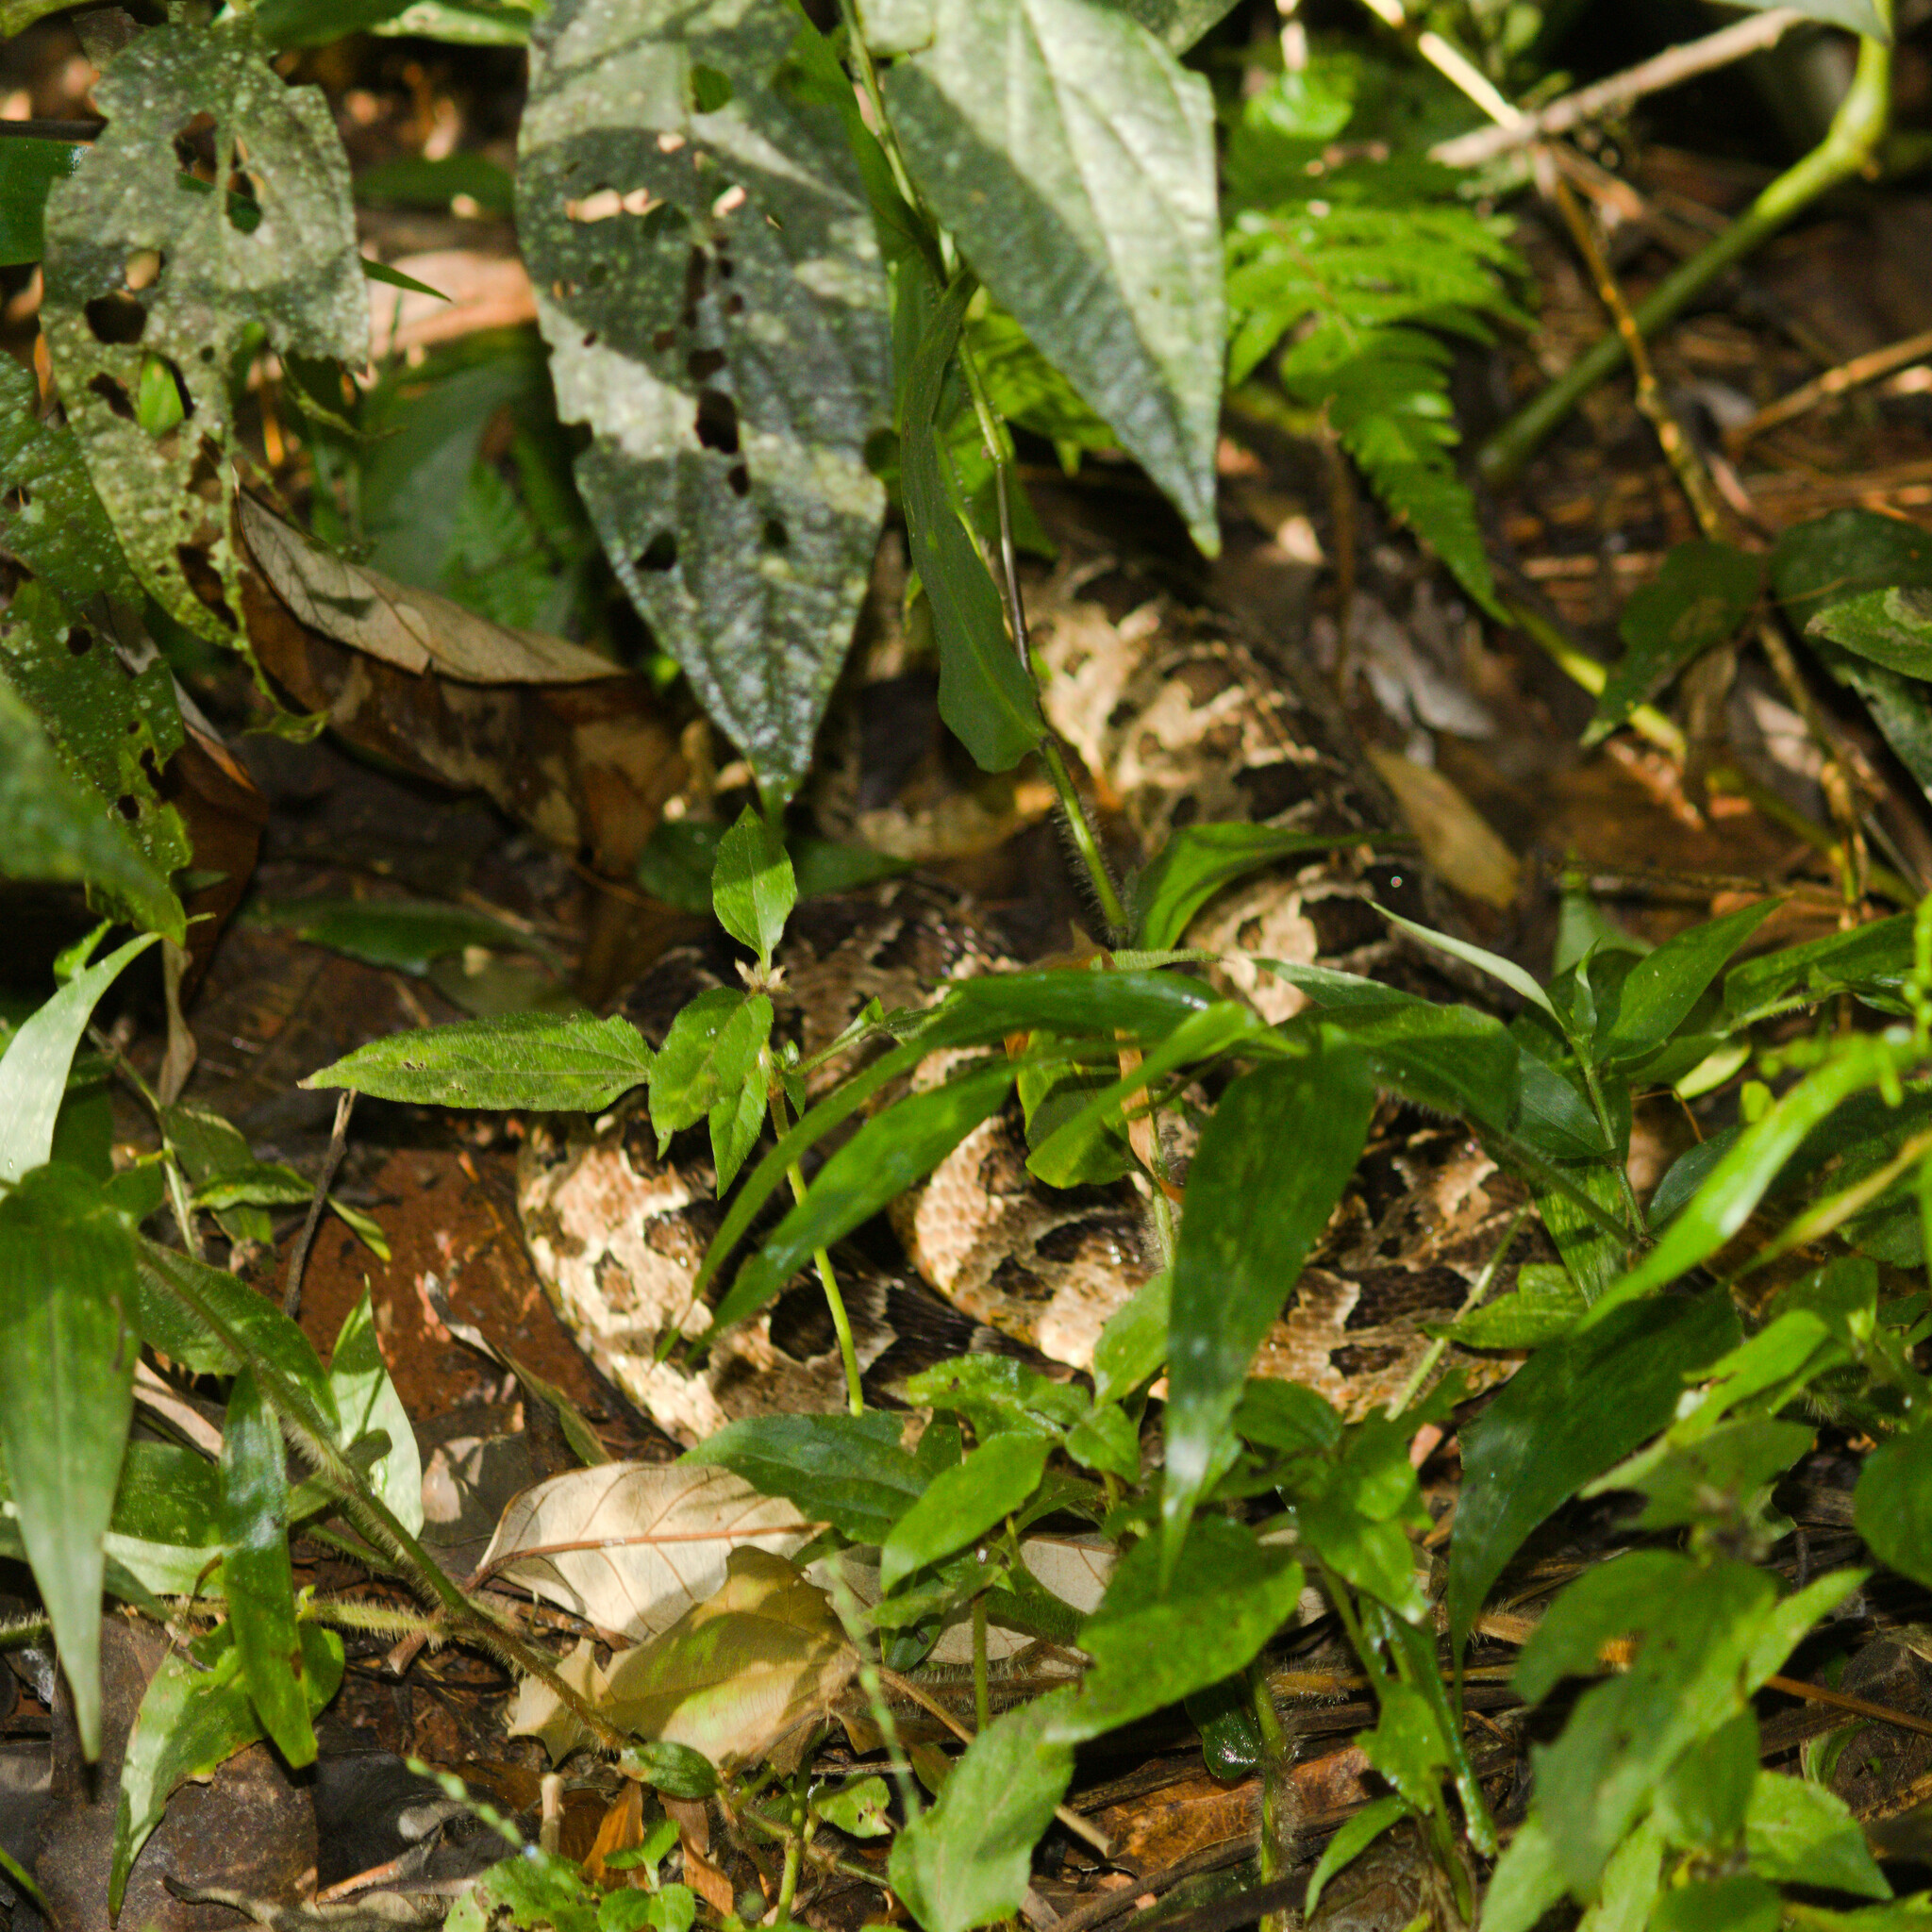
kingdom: Animalia
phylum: Chordata
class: Squamata
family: Viperidae
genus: Bothrops
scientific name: Bothrops diporus
